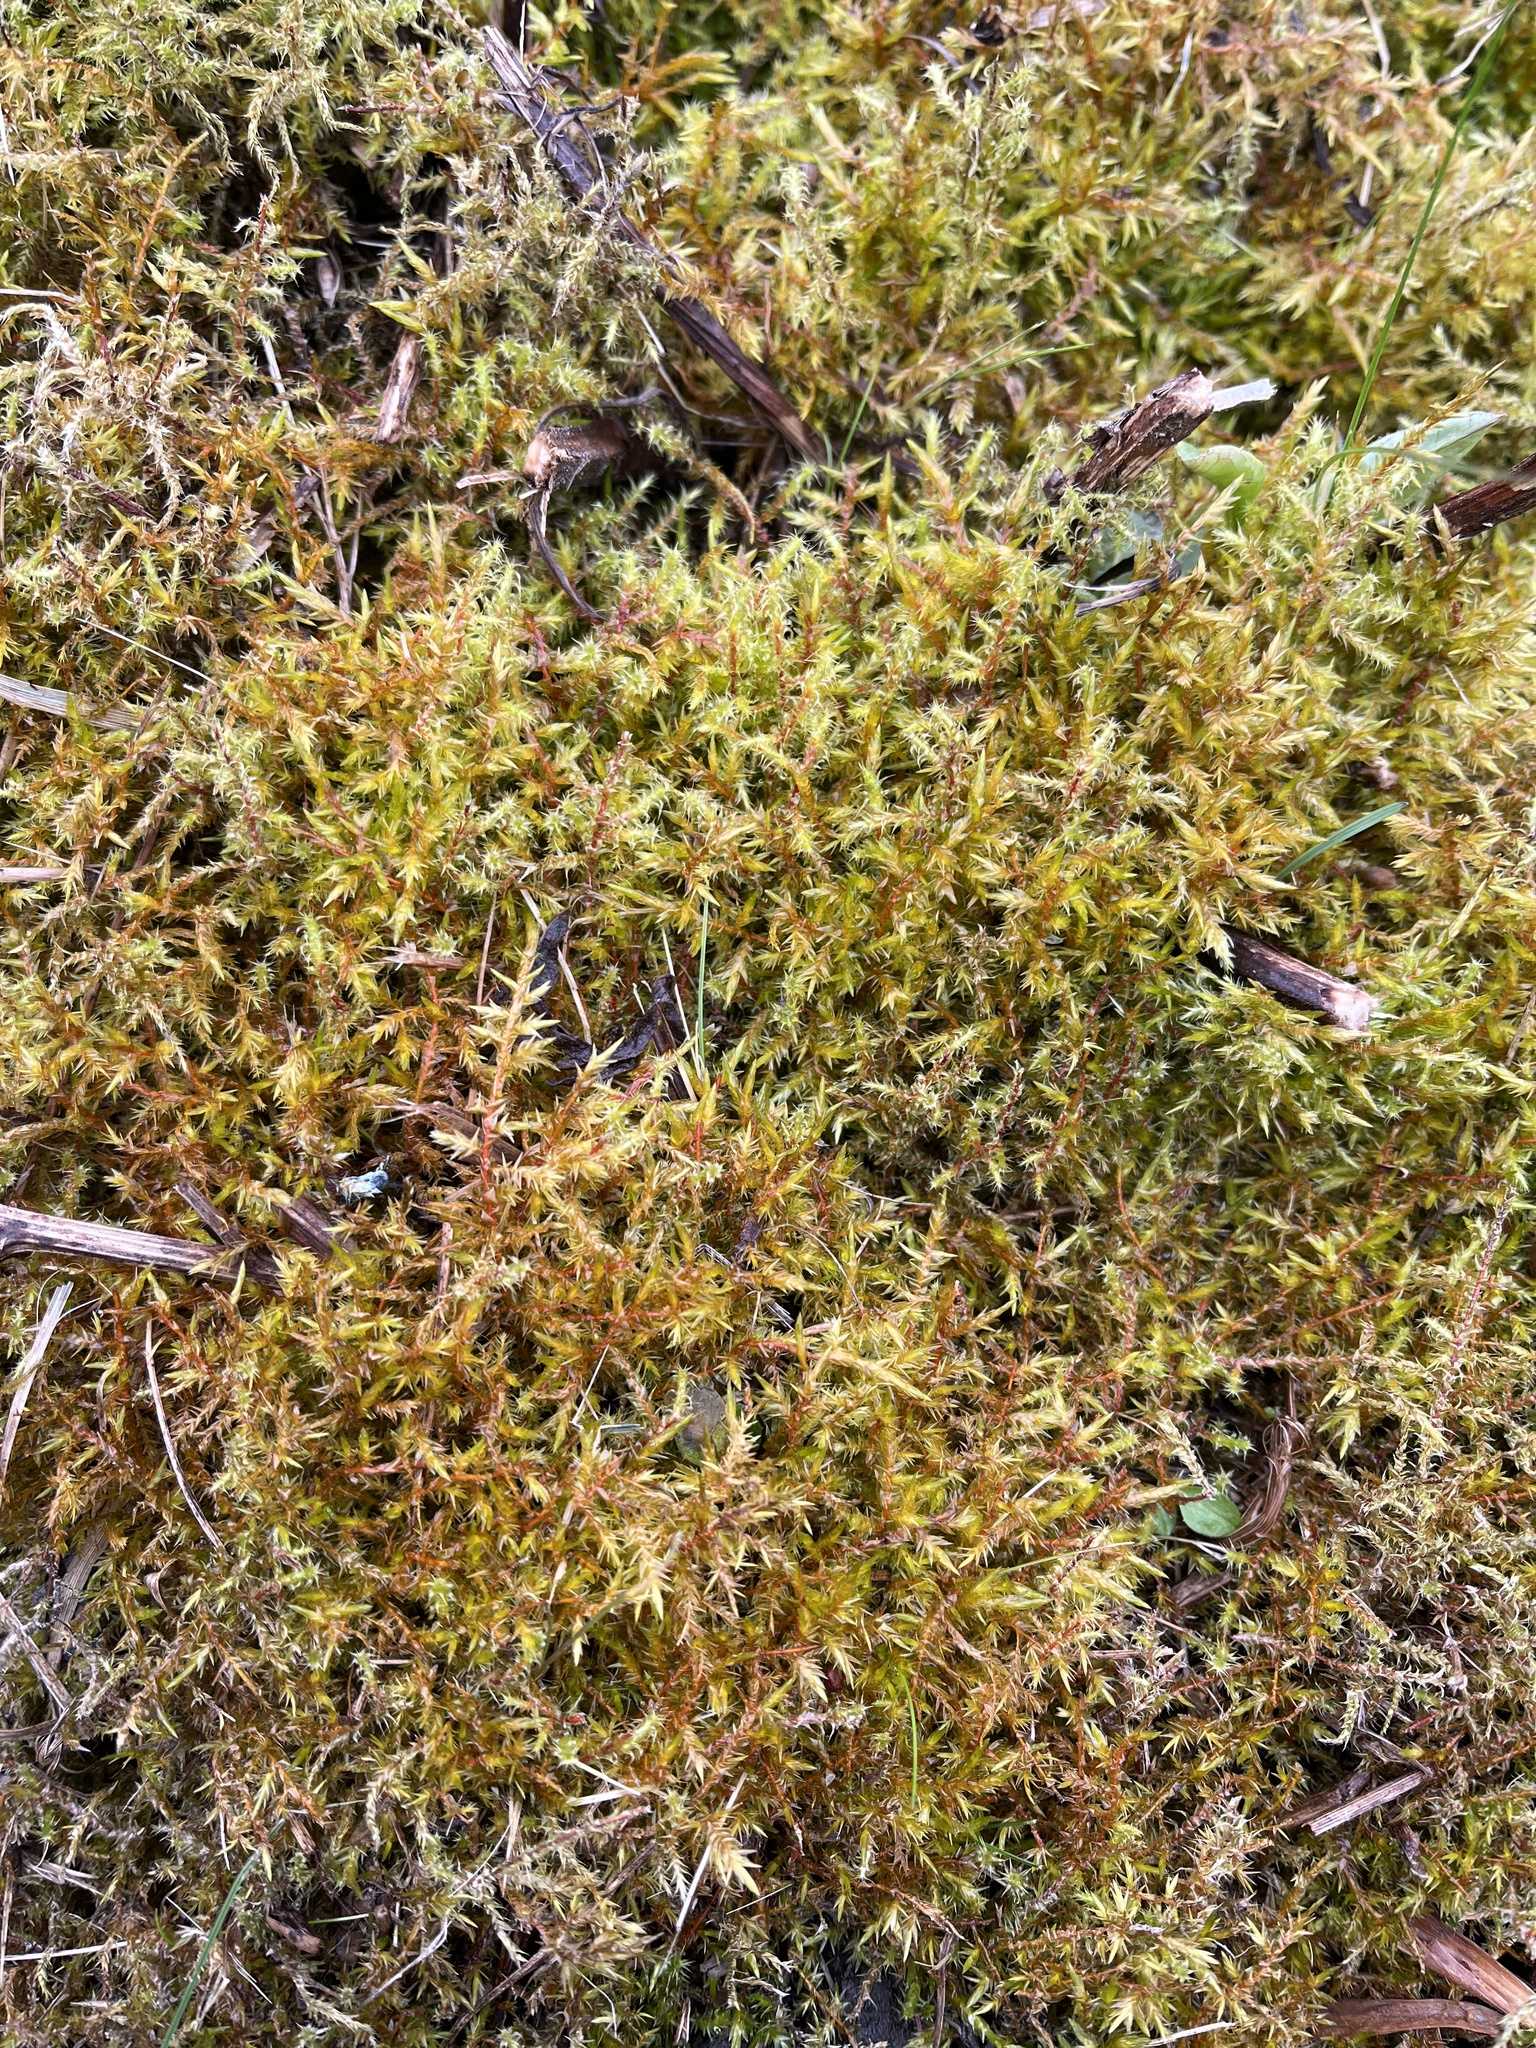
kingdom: Plantae
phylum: Bryophyta
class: Bryopsida
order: Hypnales
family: Pylaisiaceae
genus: Calliergonella
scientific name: Calliergonella cuspidata
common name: Common large wetland moss
